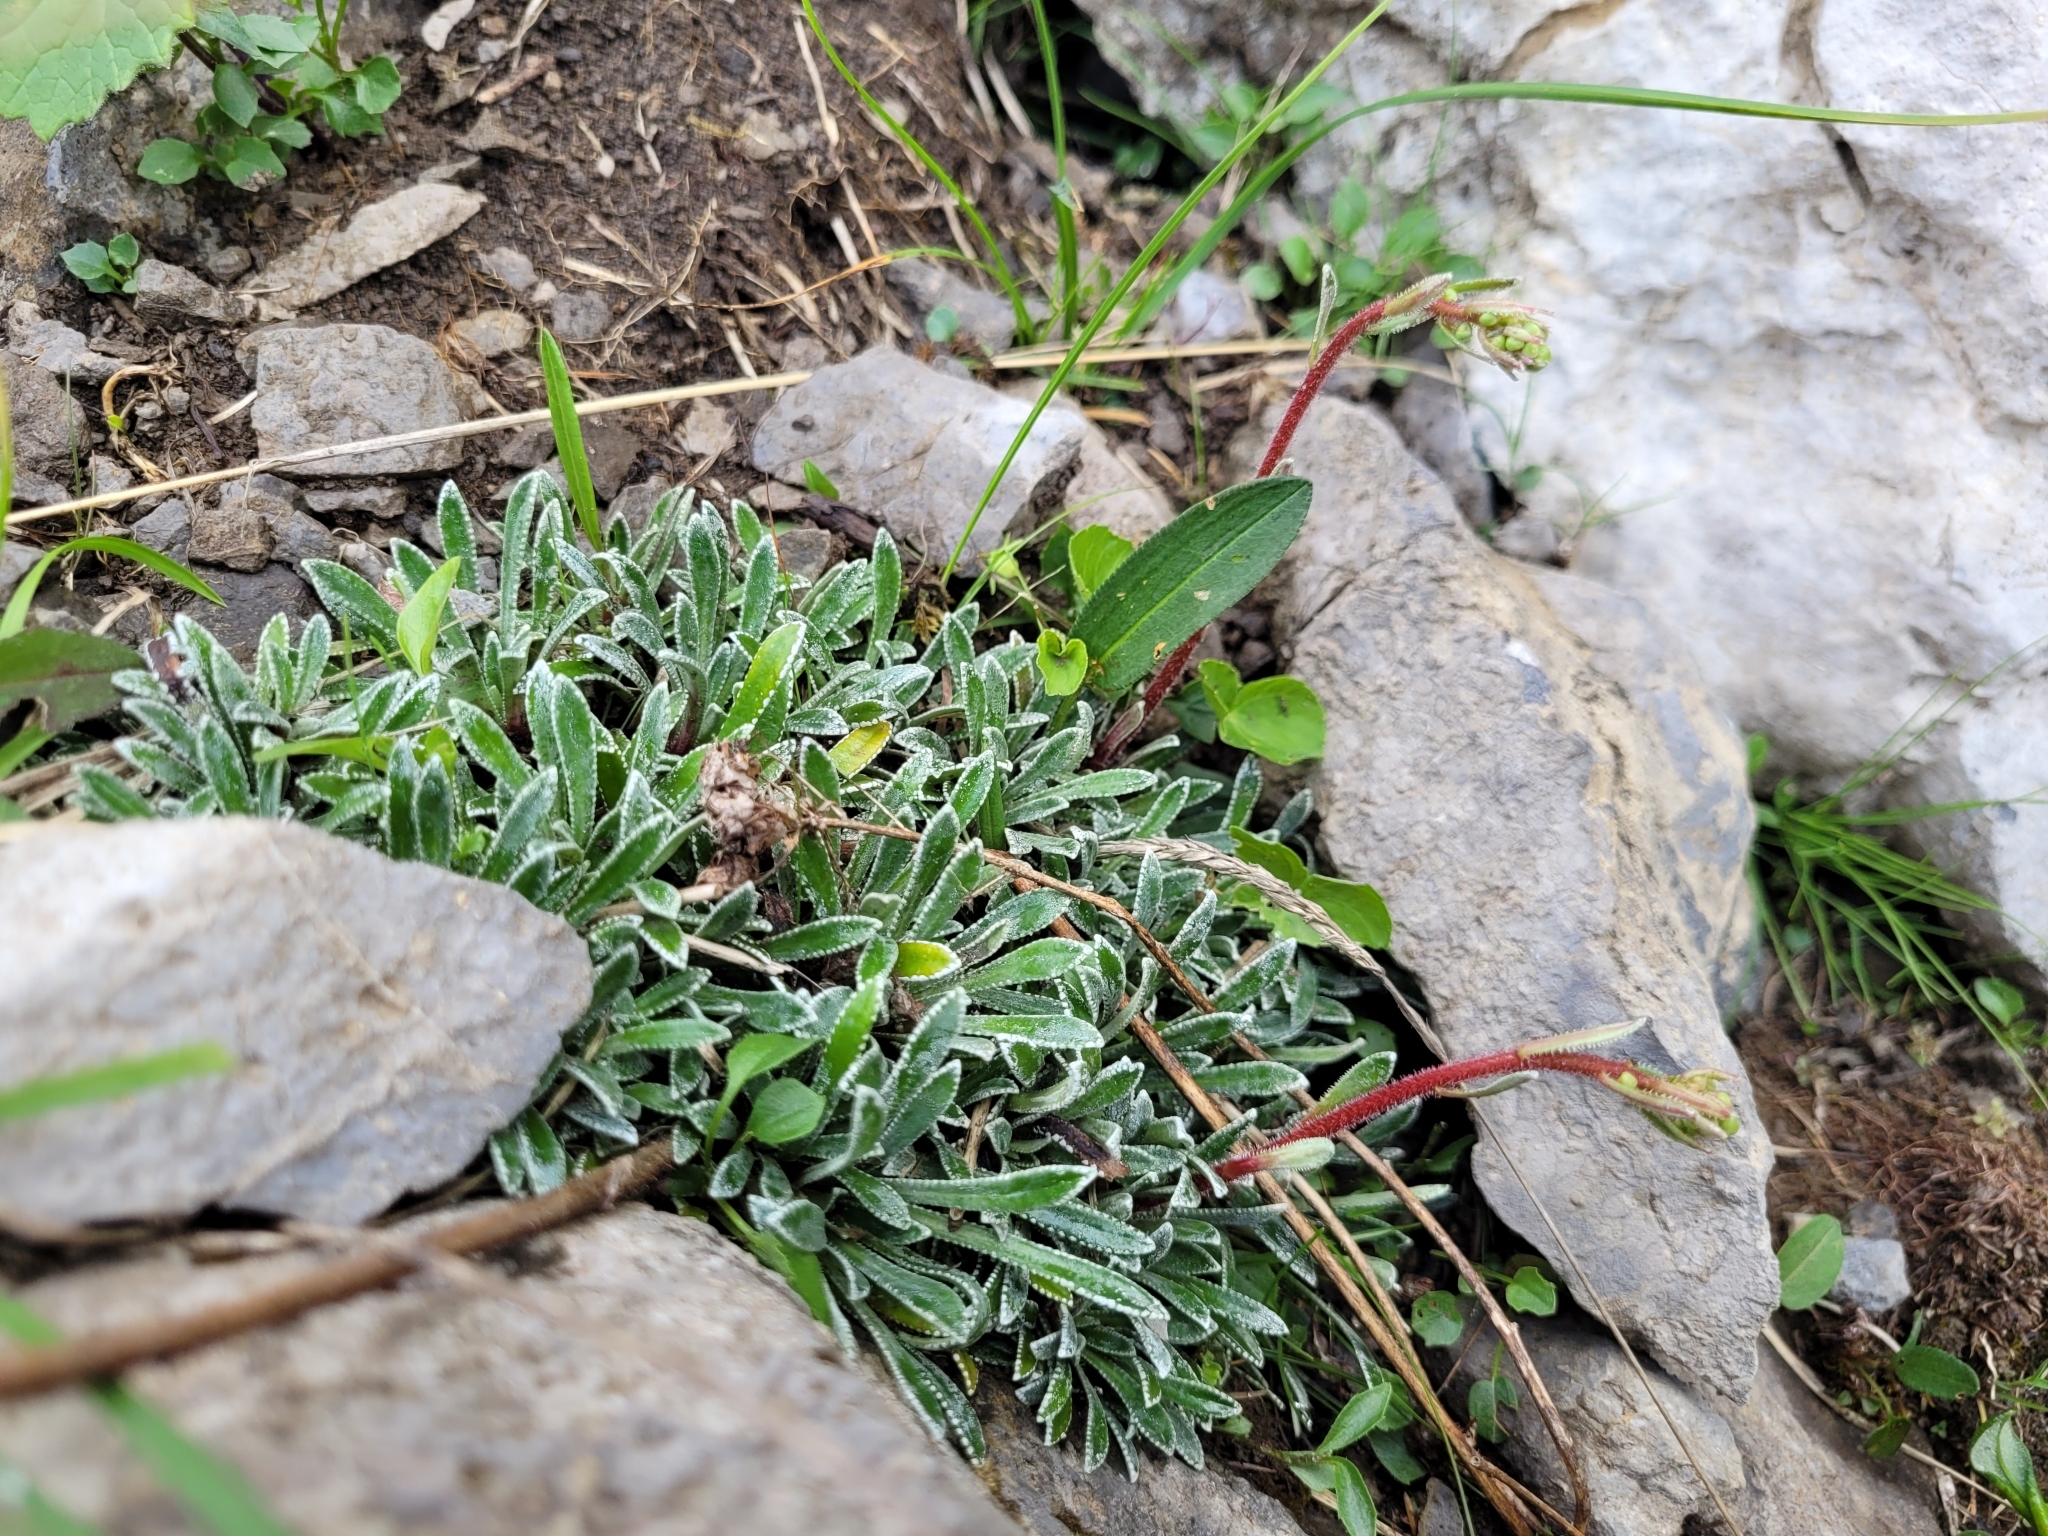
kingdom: Plantae
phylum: Tracheophyta
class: Magnoliopsida
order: Saxifragales
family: Saxifragaceae
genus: Saxifraga
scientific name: Saxifraga crustata
